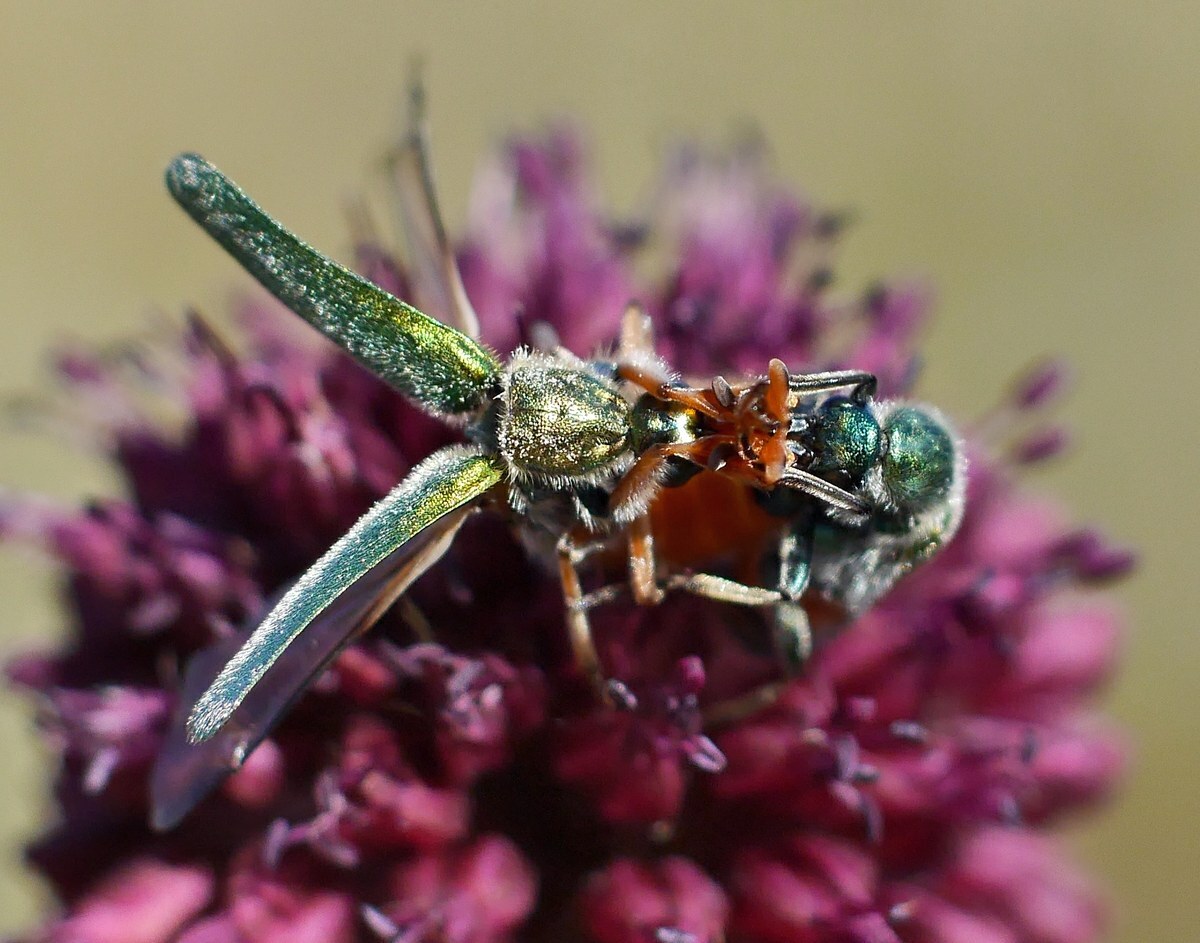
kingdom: Animalia
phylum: Arthropoda
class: Insecta
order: Coleoptera
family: Meloidae
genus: Cerocoma
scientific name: Cerocoma schreberi
